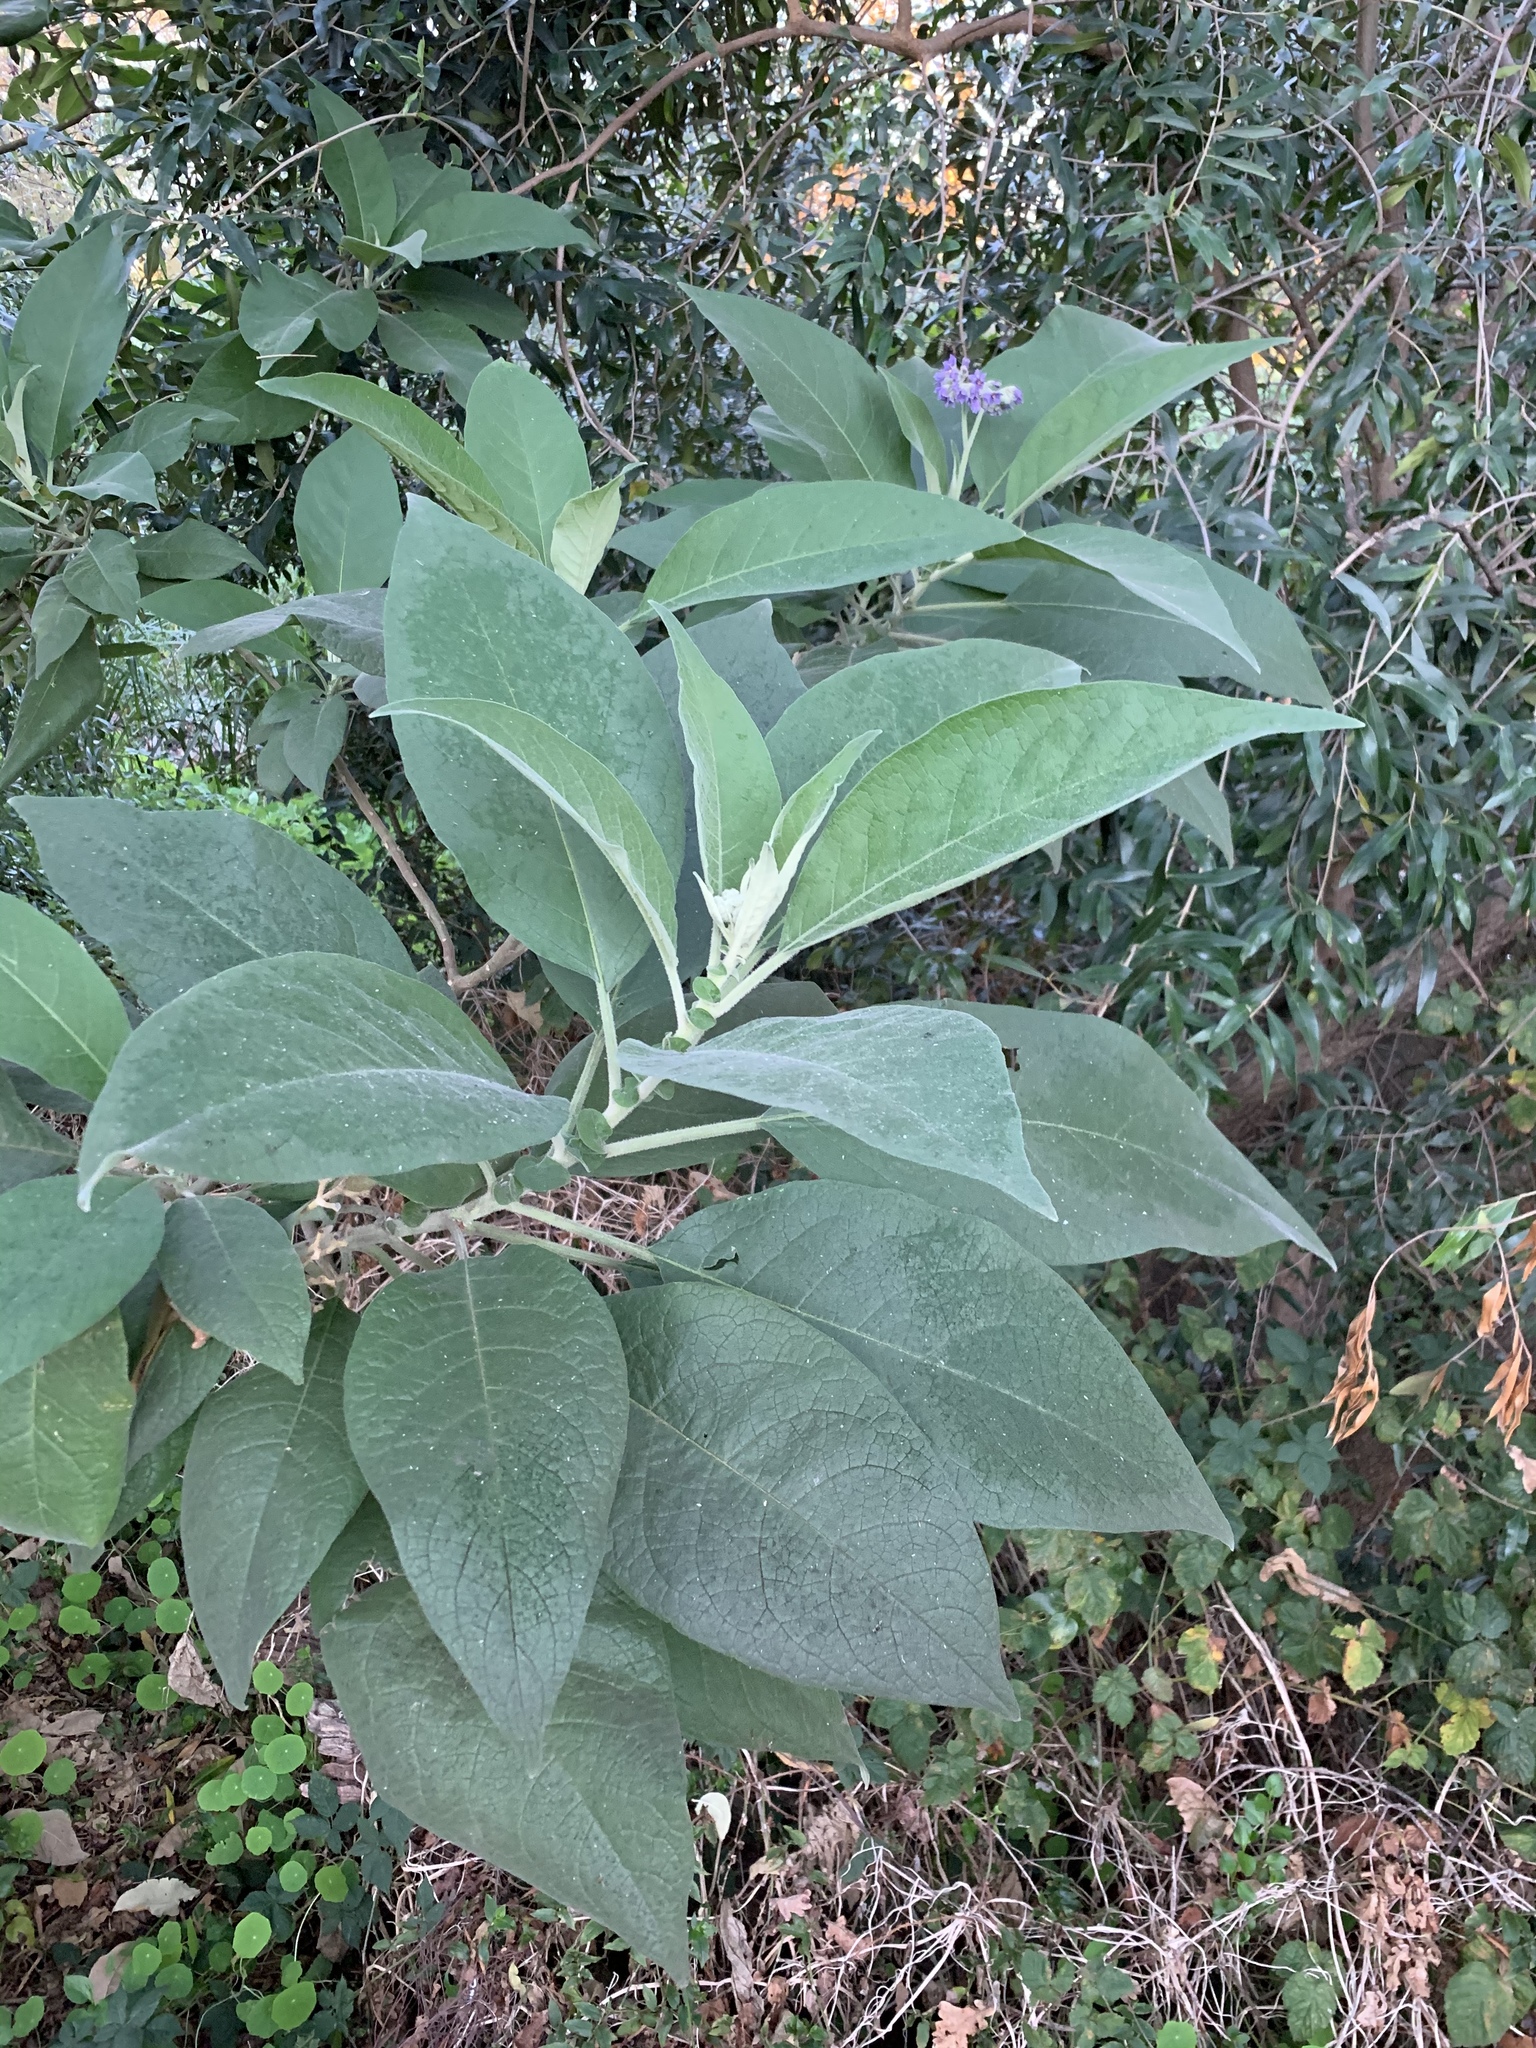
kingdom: Plantae
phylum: Tracheophyta
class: Magnoliopsida
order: Solanales
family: Solanaceae
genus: Solanum
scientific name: Solanum mauritianum
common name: Earleaf nightshade
